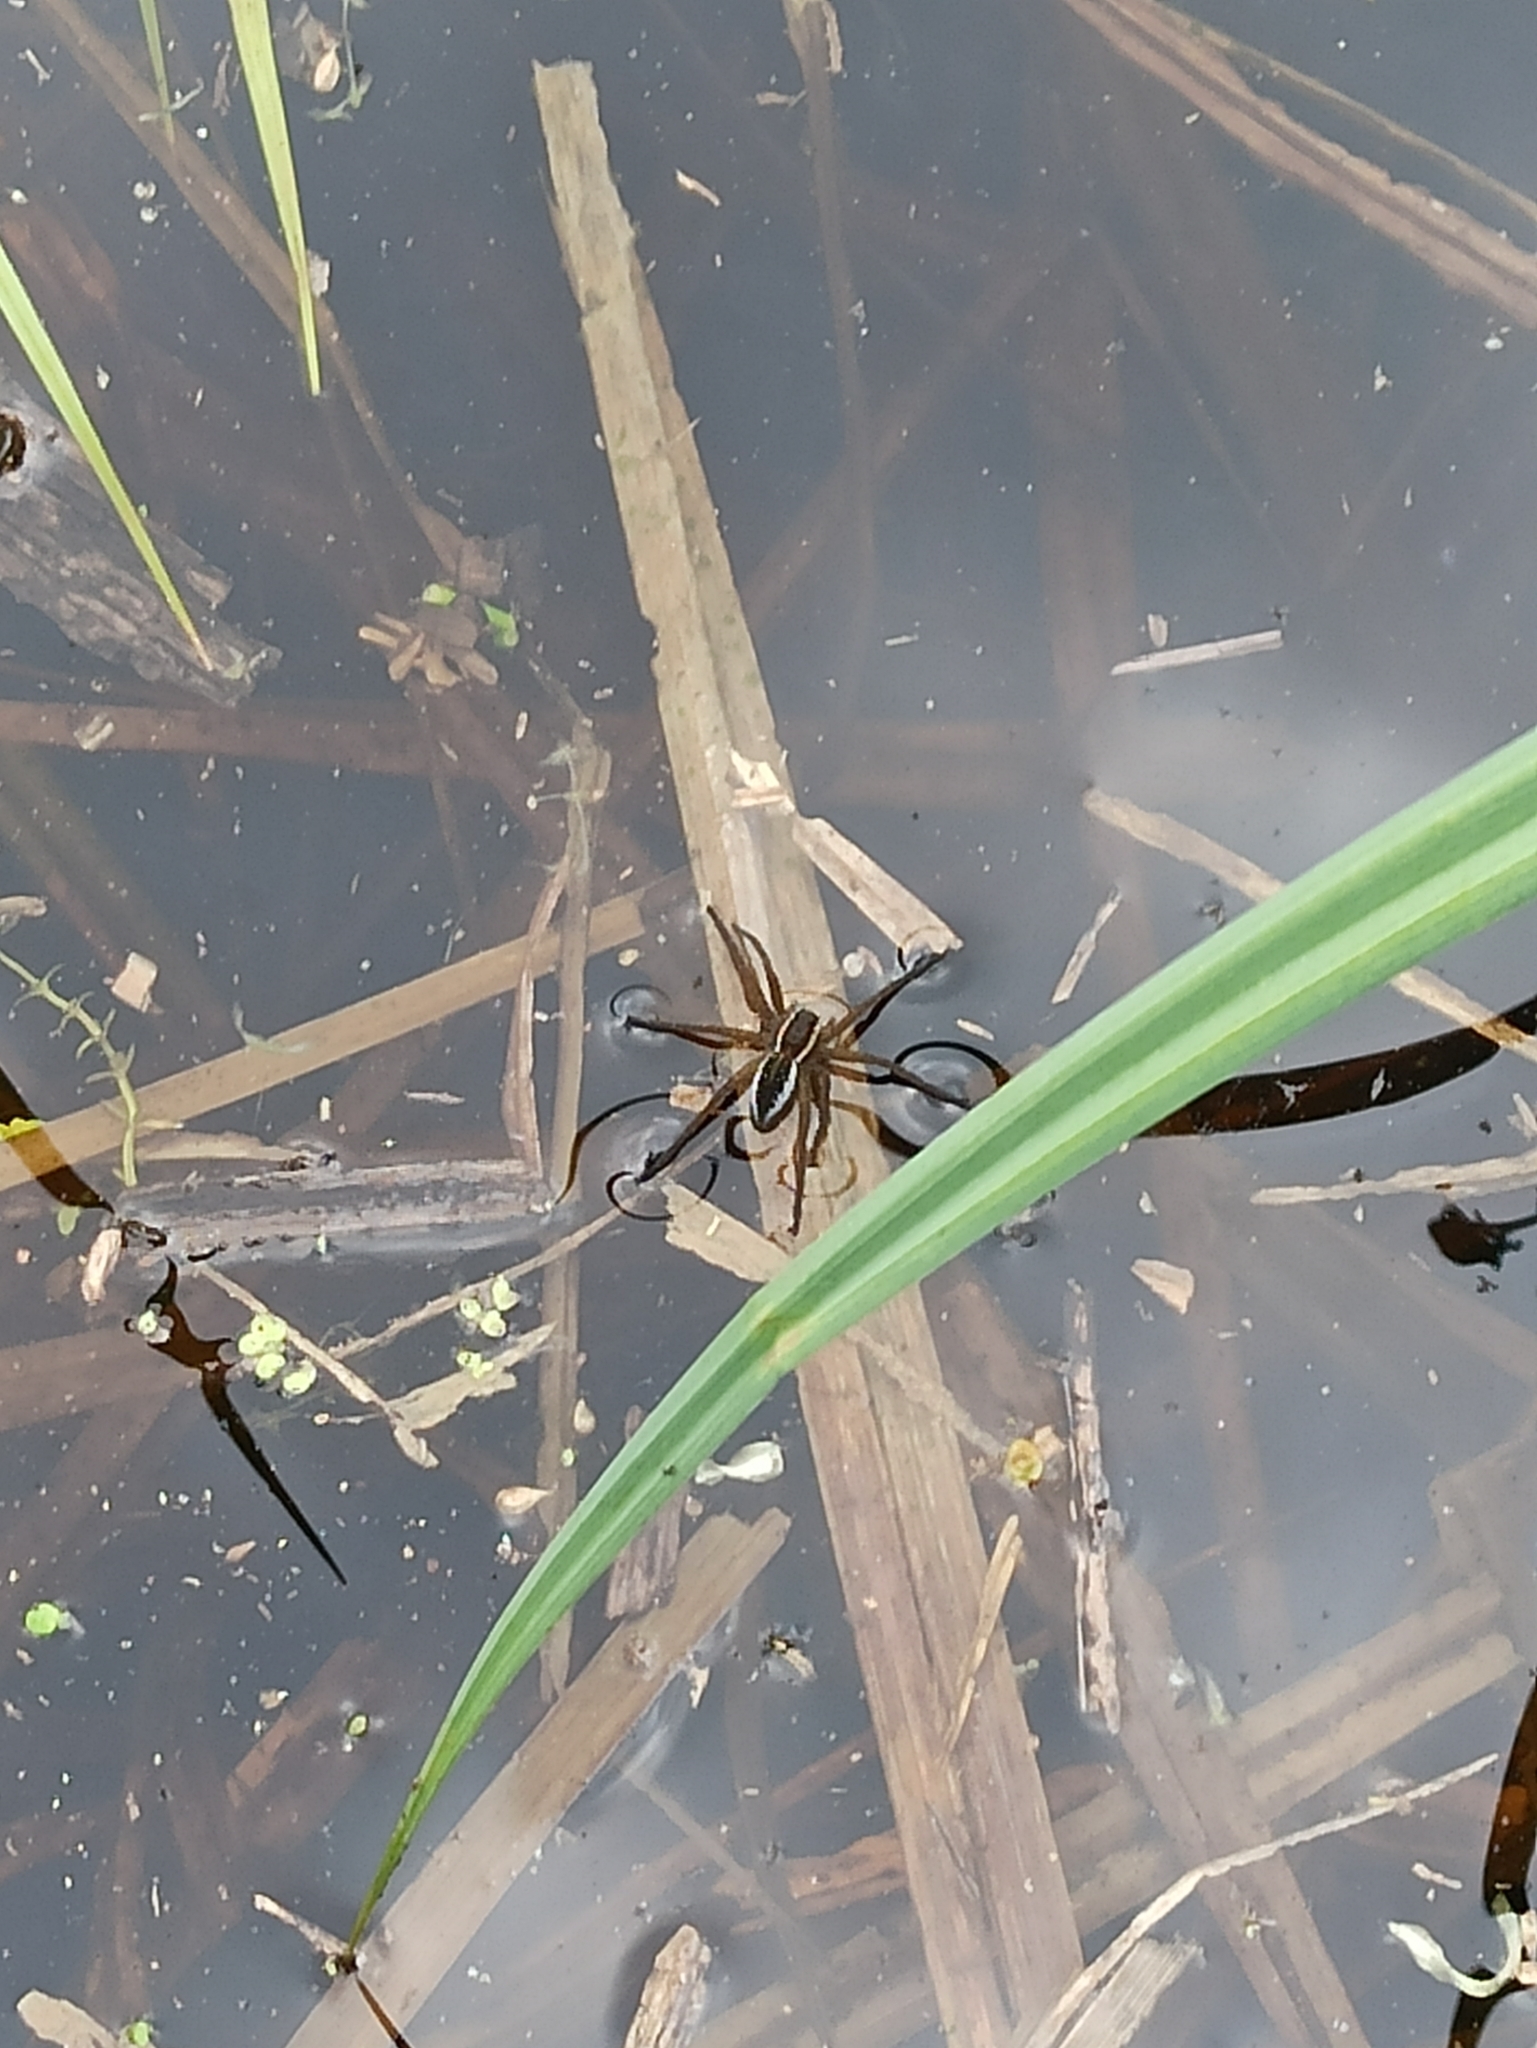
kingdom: Animalia
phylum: Arthropoda
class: Arachnida
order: Araneae
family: Pisauridae
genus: Dolomedes
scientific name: Dolomedes
